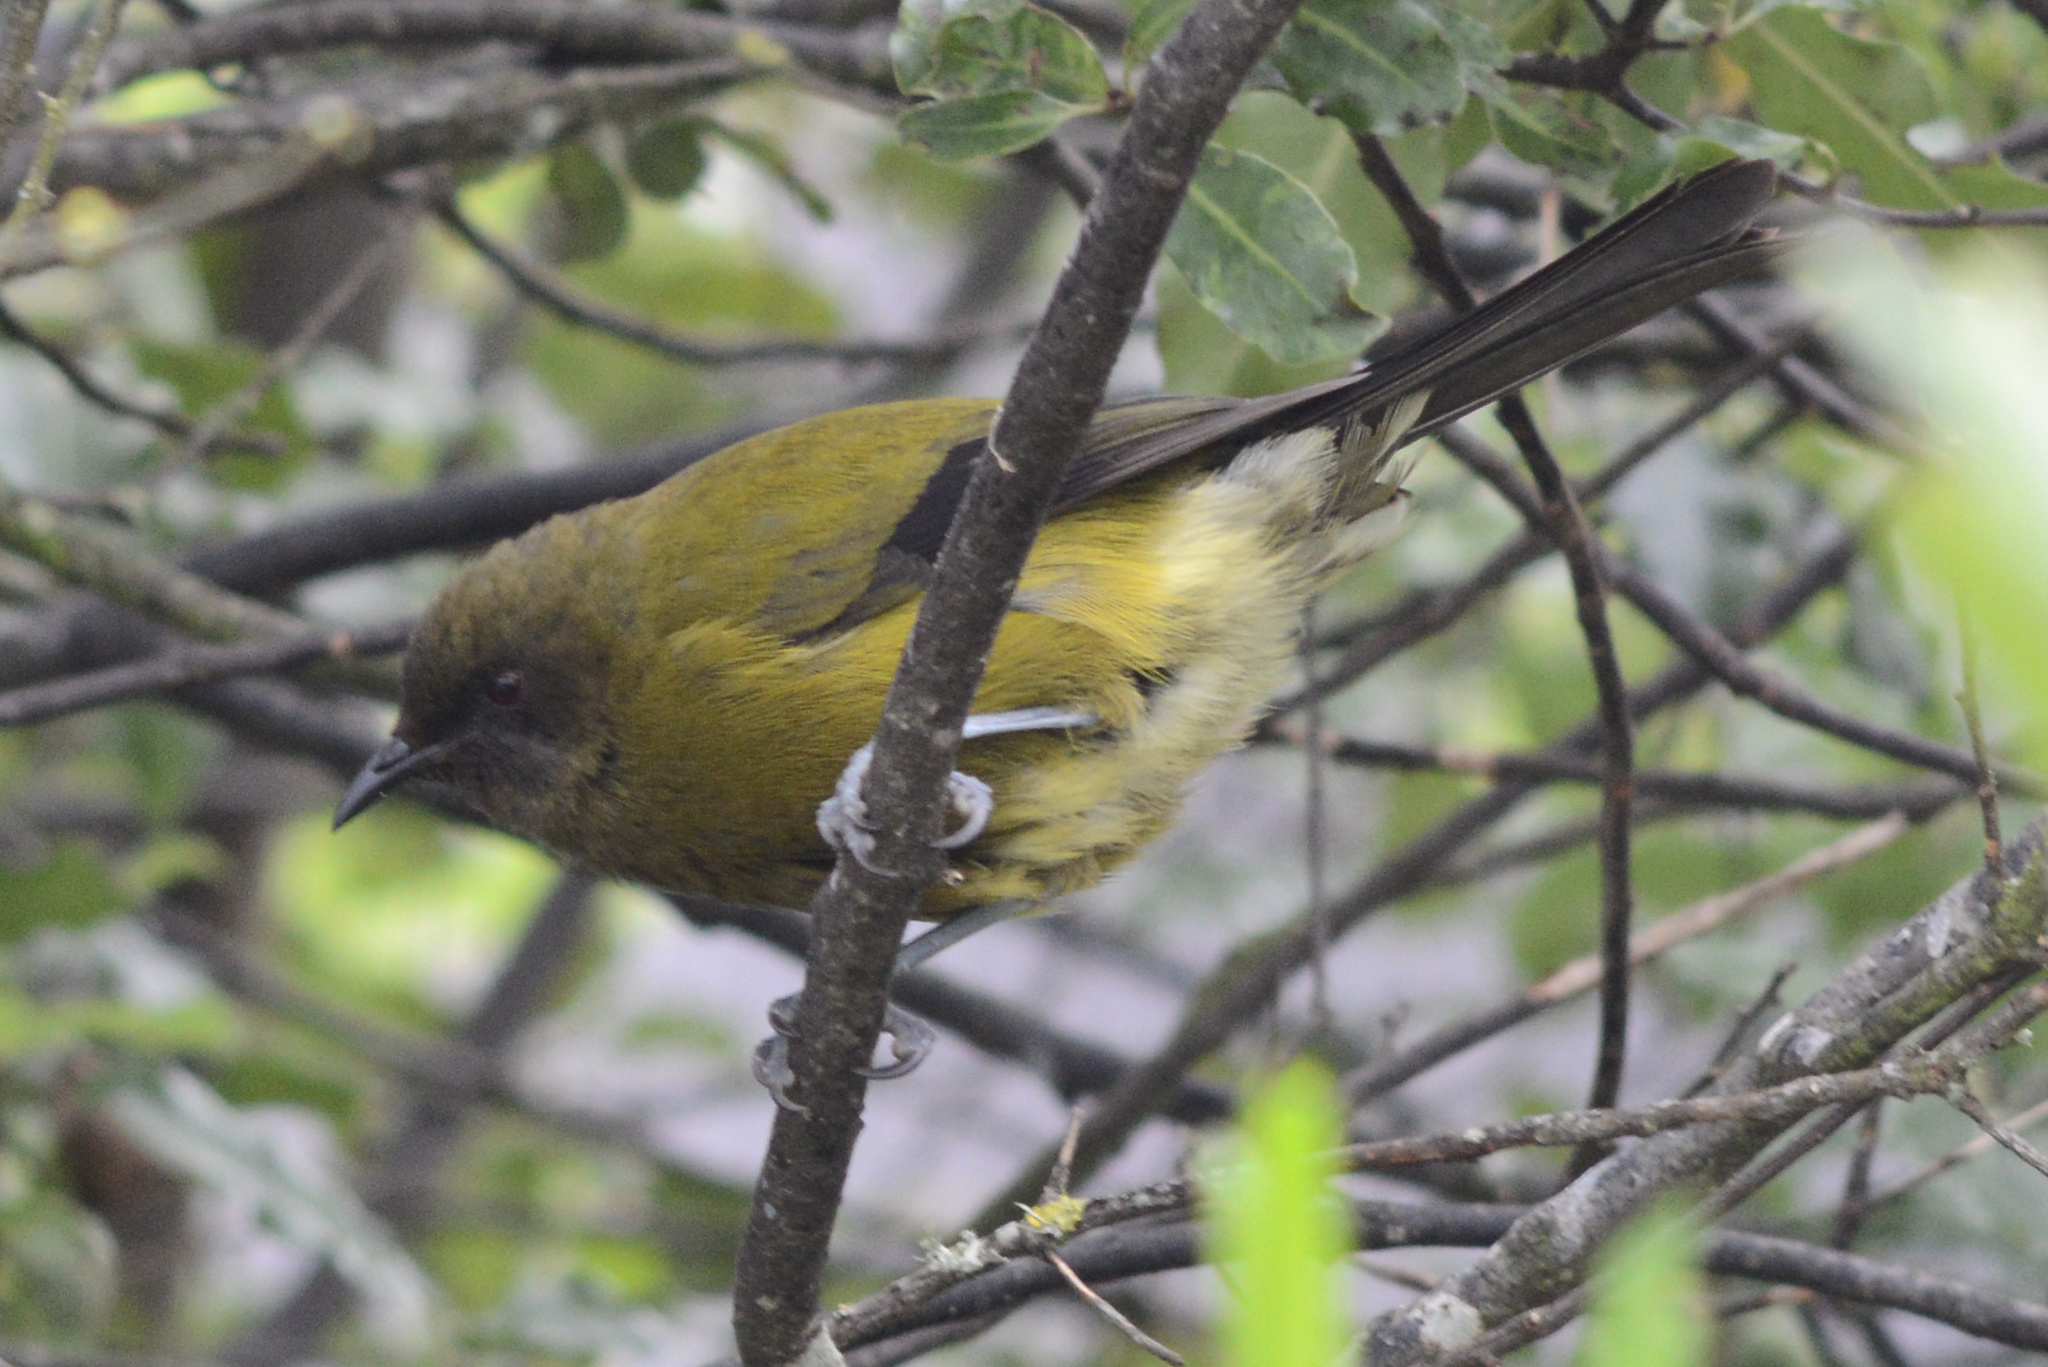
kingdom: Animalia
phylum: Chordata
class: Aves
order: Passeriformes
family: Meliphagidae
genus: Anthornis
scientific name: Anthornis melanura
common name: New zealand bellbird
